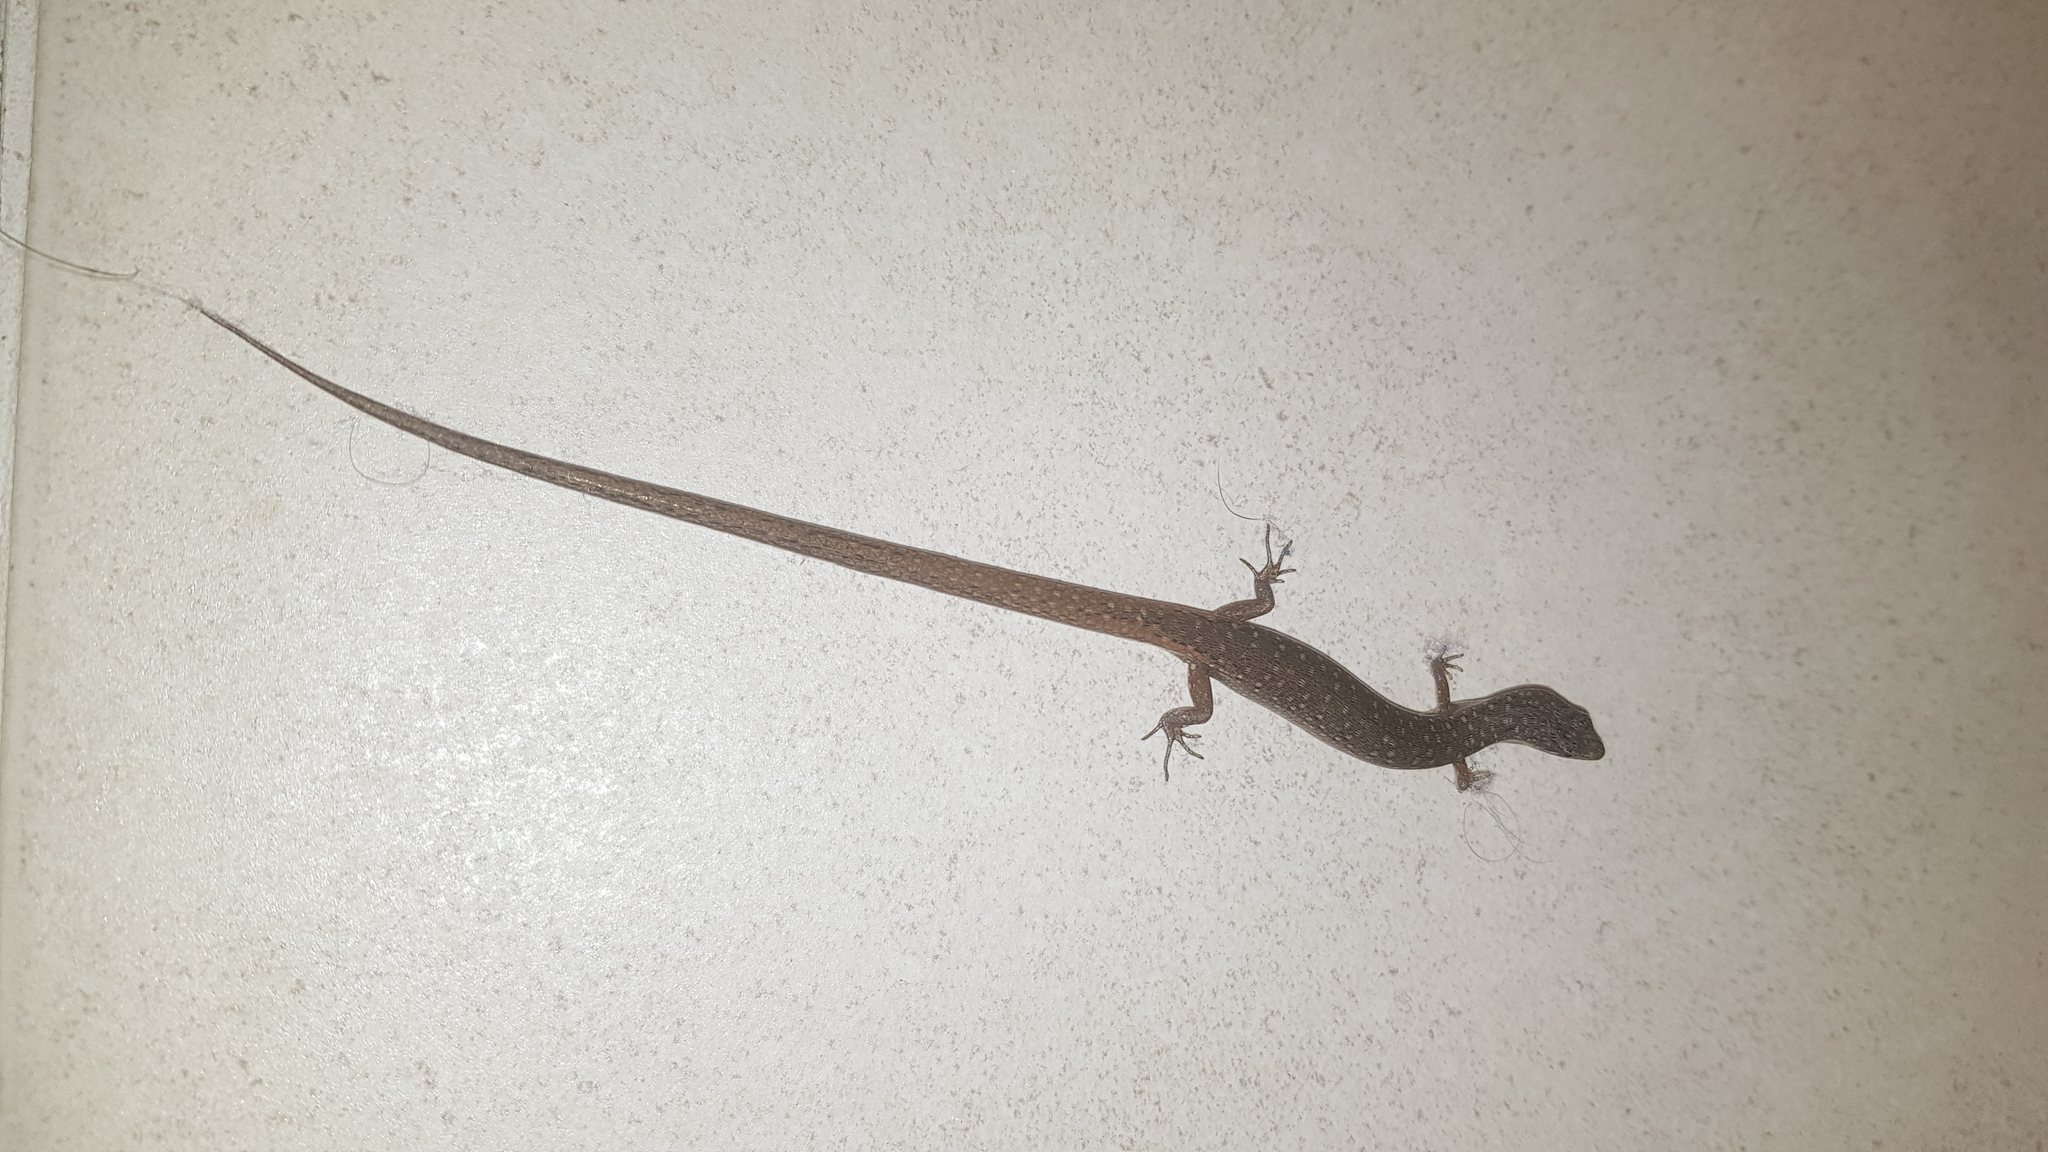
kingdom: Animalia
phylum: Chordata
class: Squamata
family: Scincidae
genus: Saproscincus
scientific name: Saproscincus mustelinus
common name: Southern weasel skink
